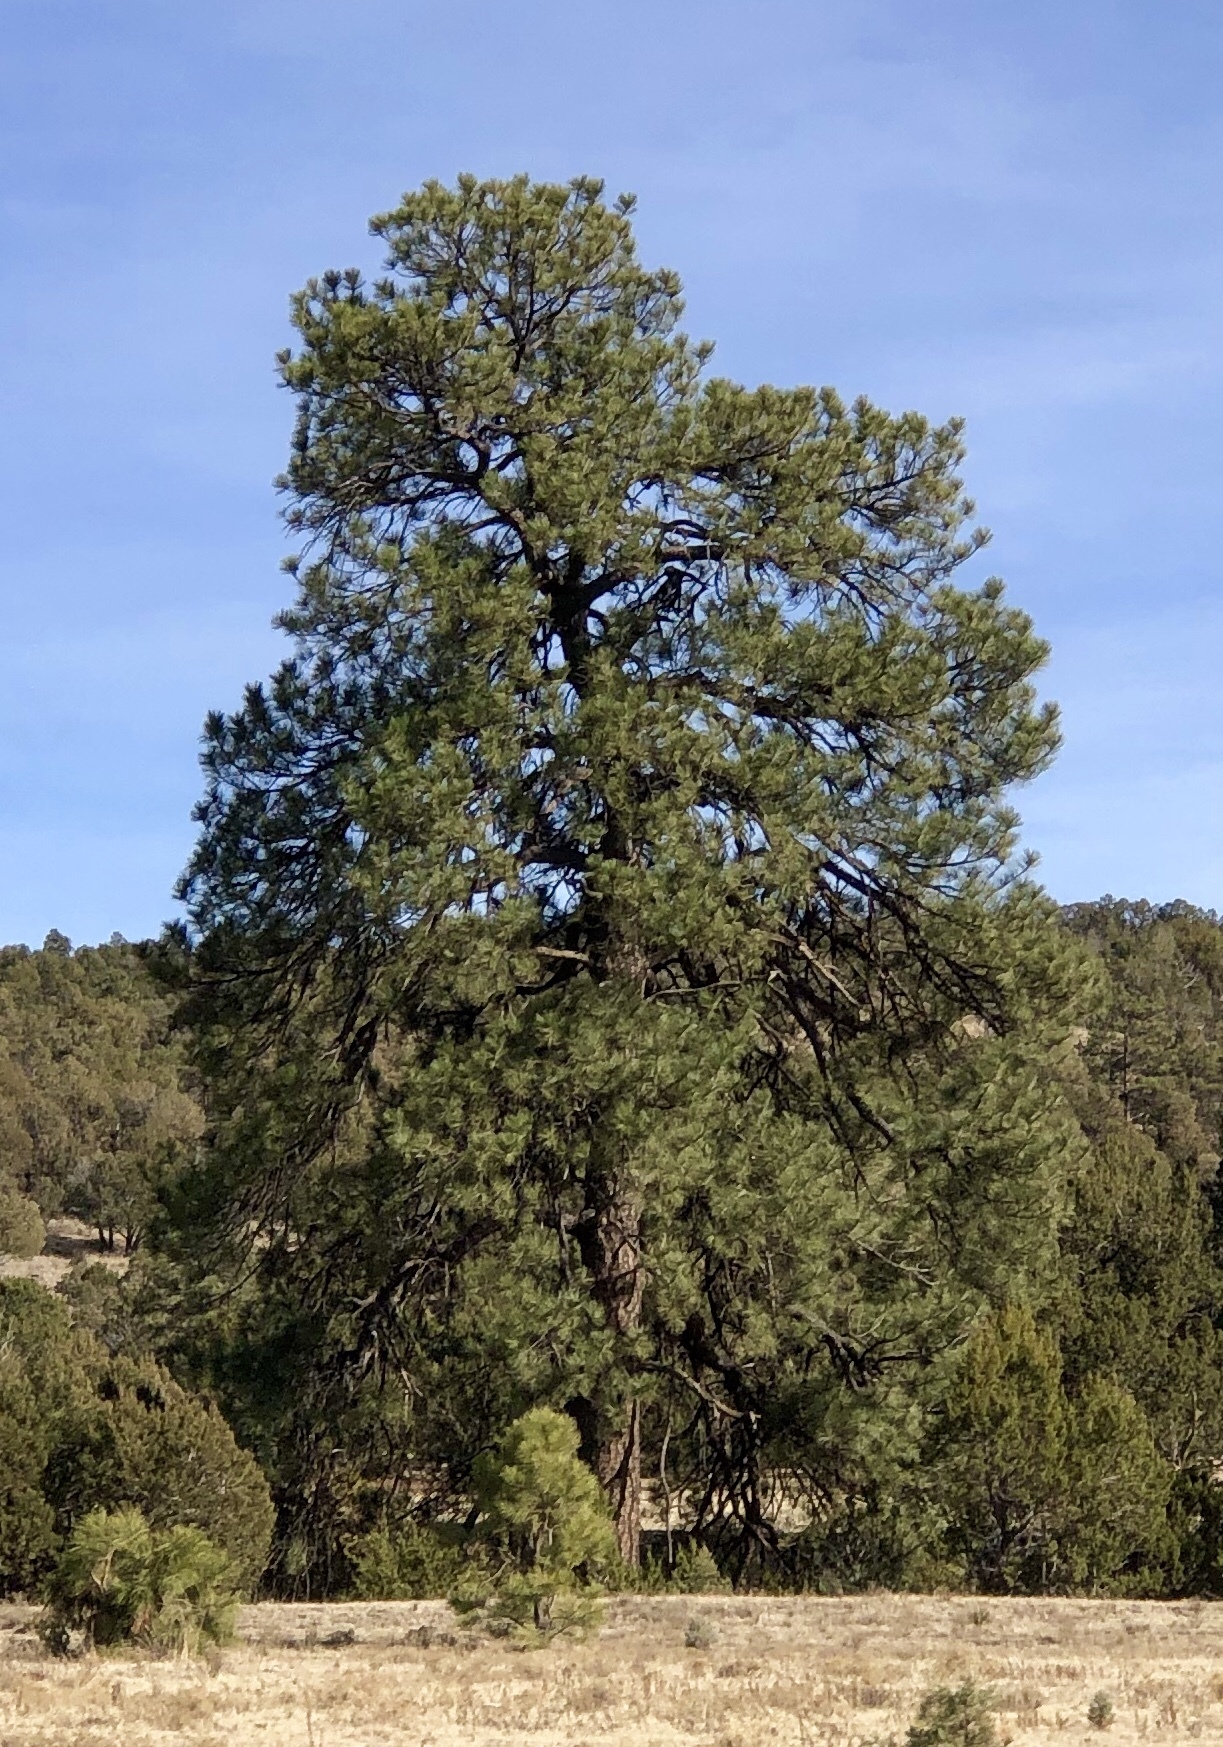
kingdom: Plantae
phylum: Tracheophyta
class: Pinopsida
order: Pinales
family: Pinaceae
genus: Pinus
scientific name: Pinus ponderosa
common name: Western yellow-pine
